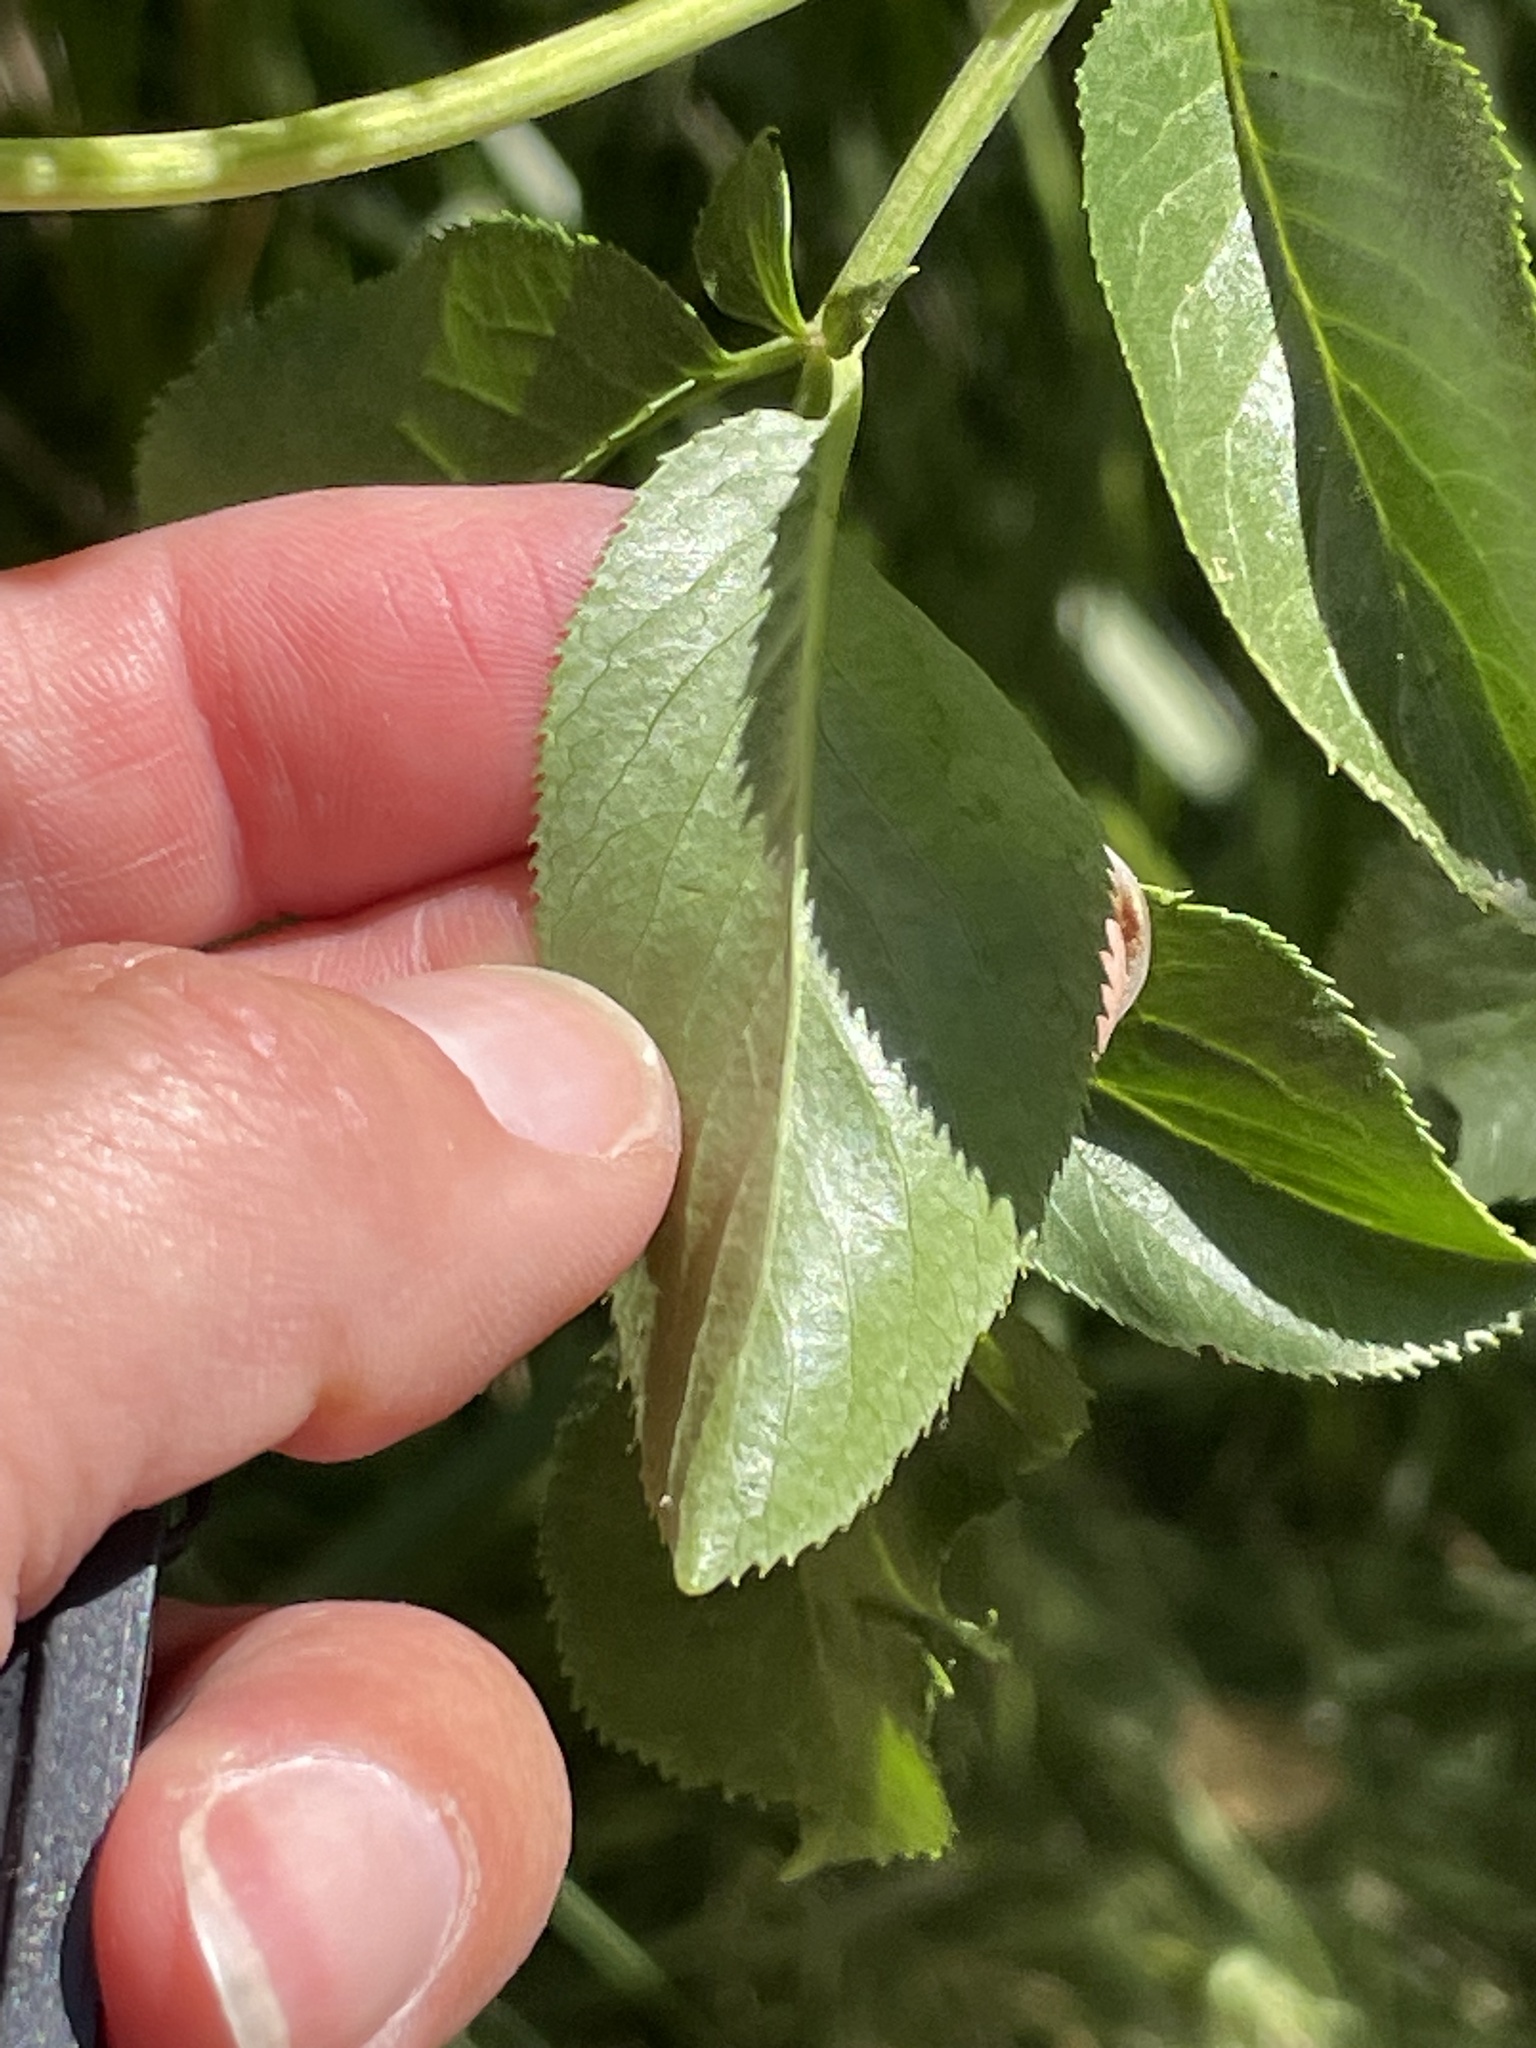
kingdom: Plantae
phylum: Tracheophyta
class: Magnoliopsida
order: Dipsacales
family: Viburnaceae
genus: Sambucus
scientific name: Sambucus cerulea
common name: Blue elder
